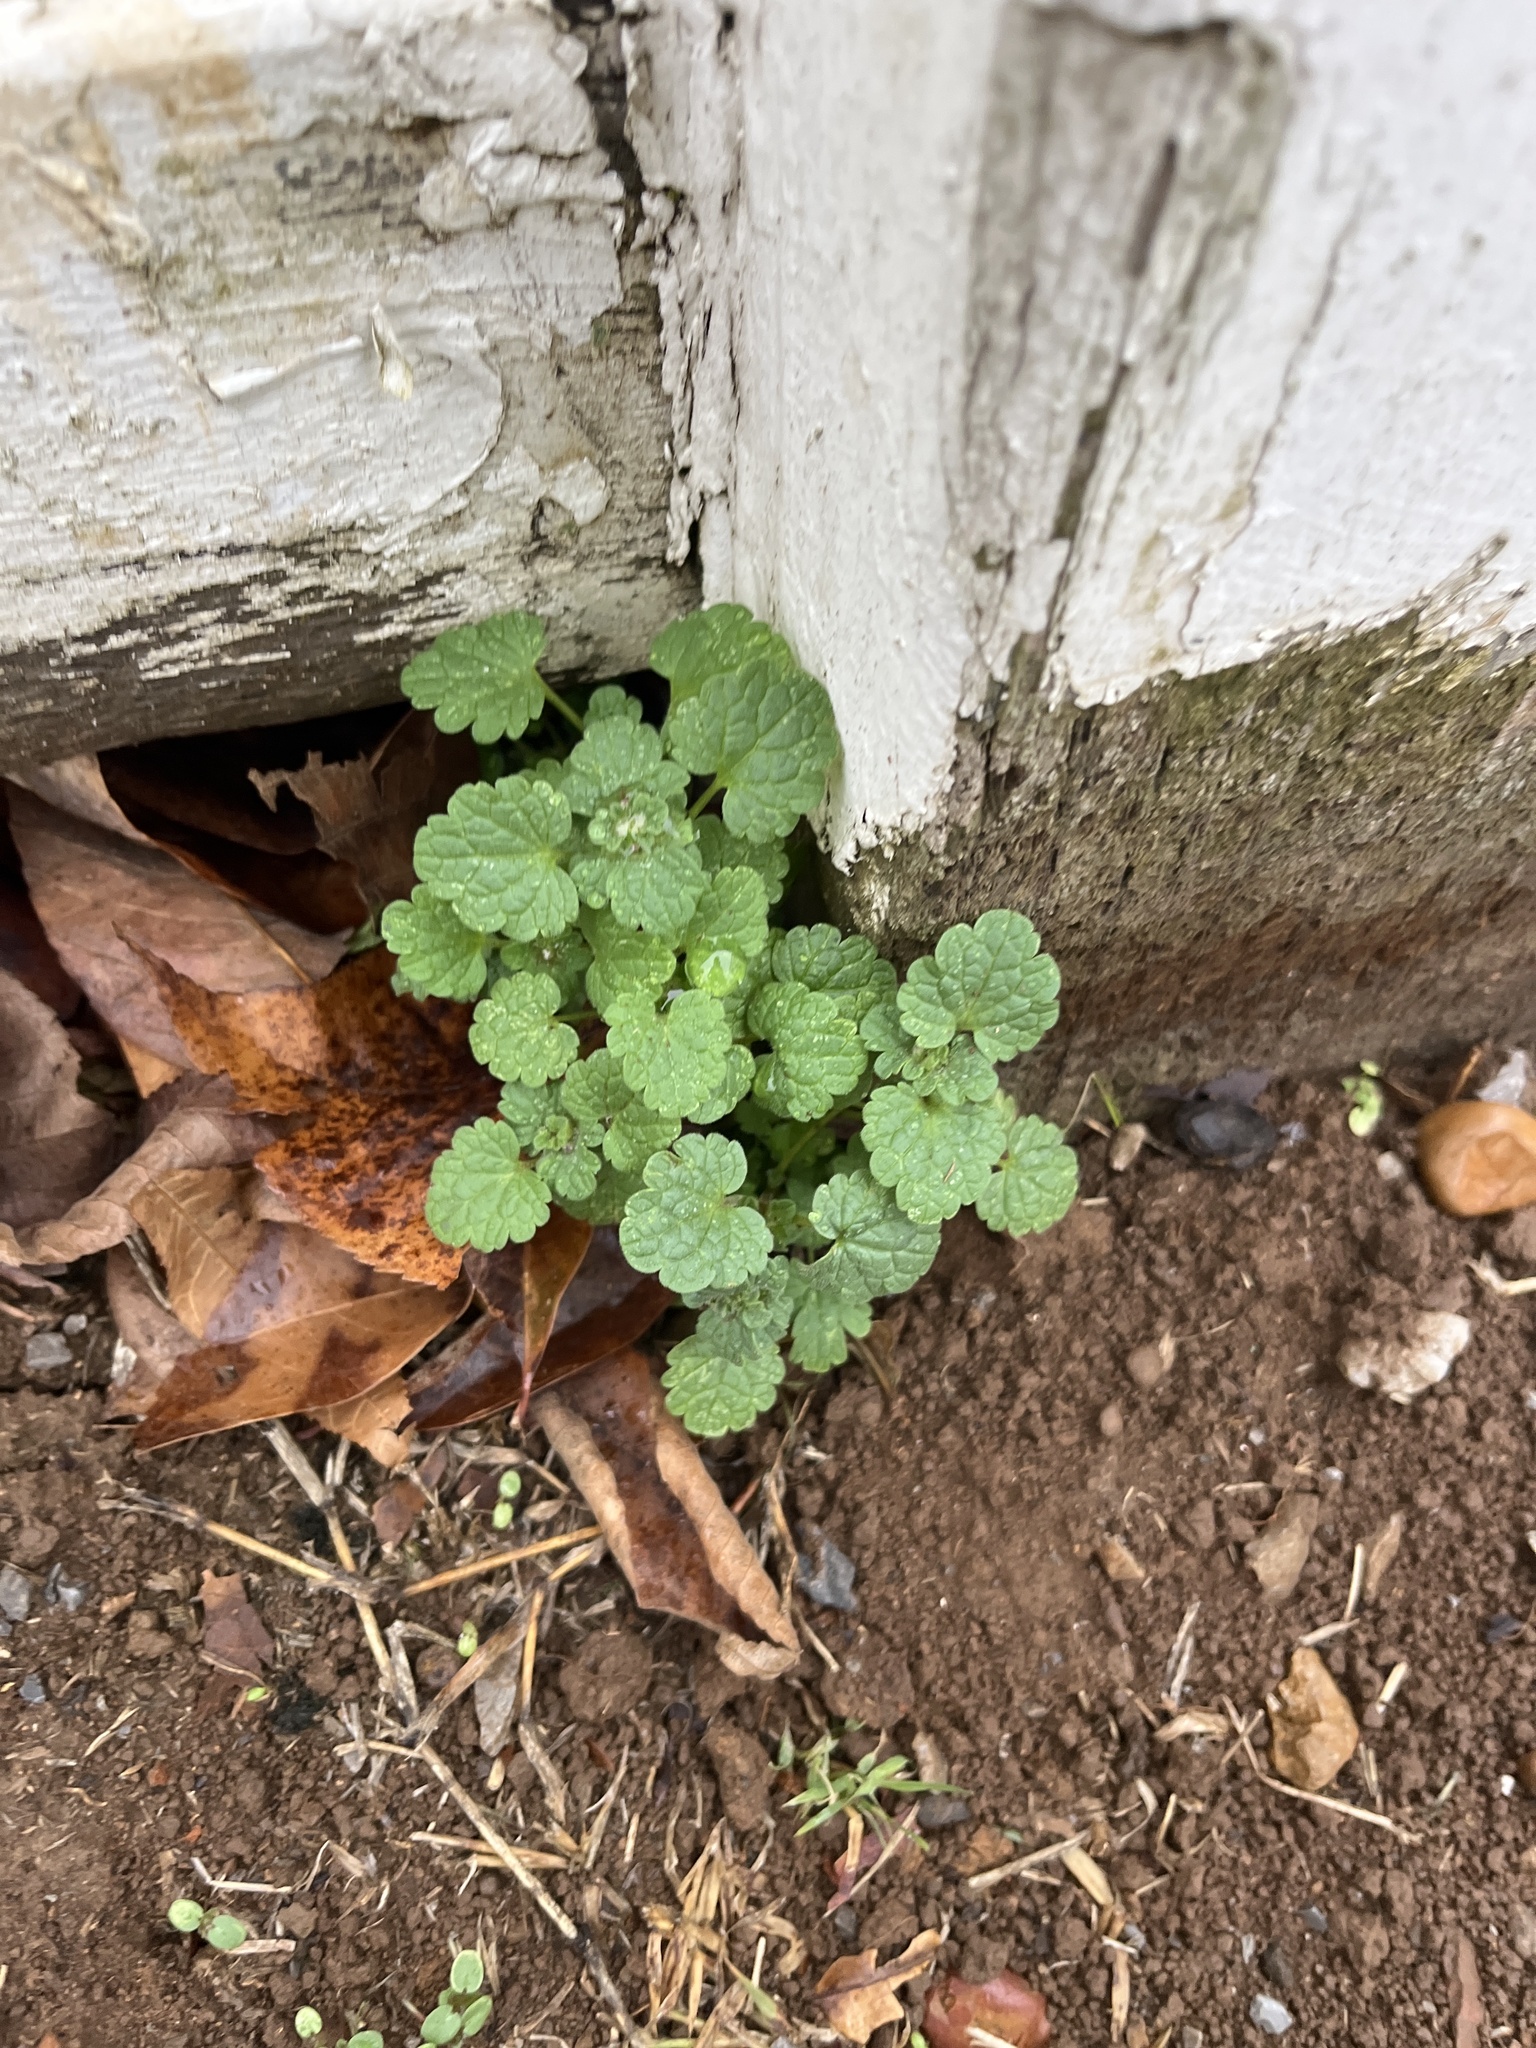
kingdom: Plantae
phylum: Tracheophyta
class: Magnoliopsida
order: Lamiales
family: Lamiaceae
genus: Lamium
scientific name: Lamium amplexicaule
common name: Henbit dead-nettle
